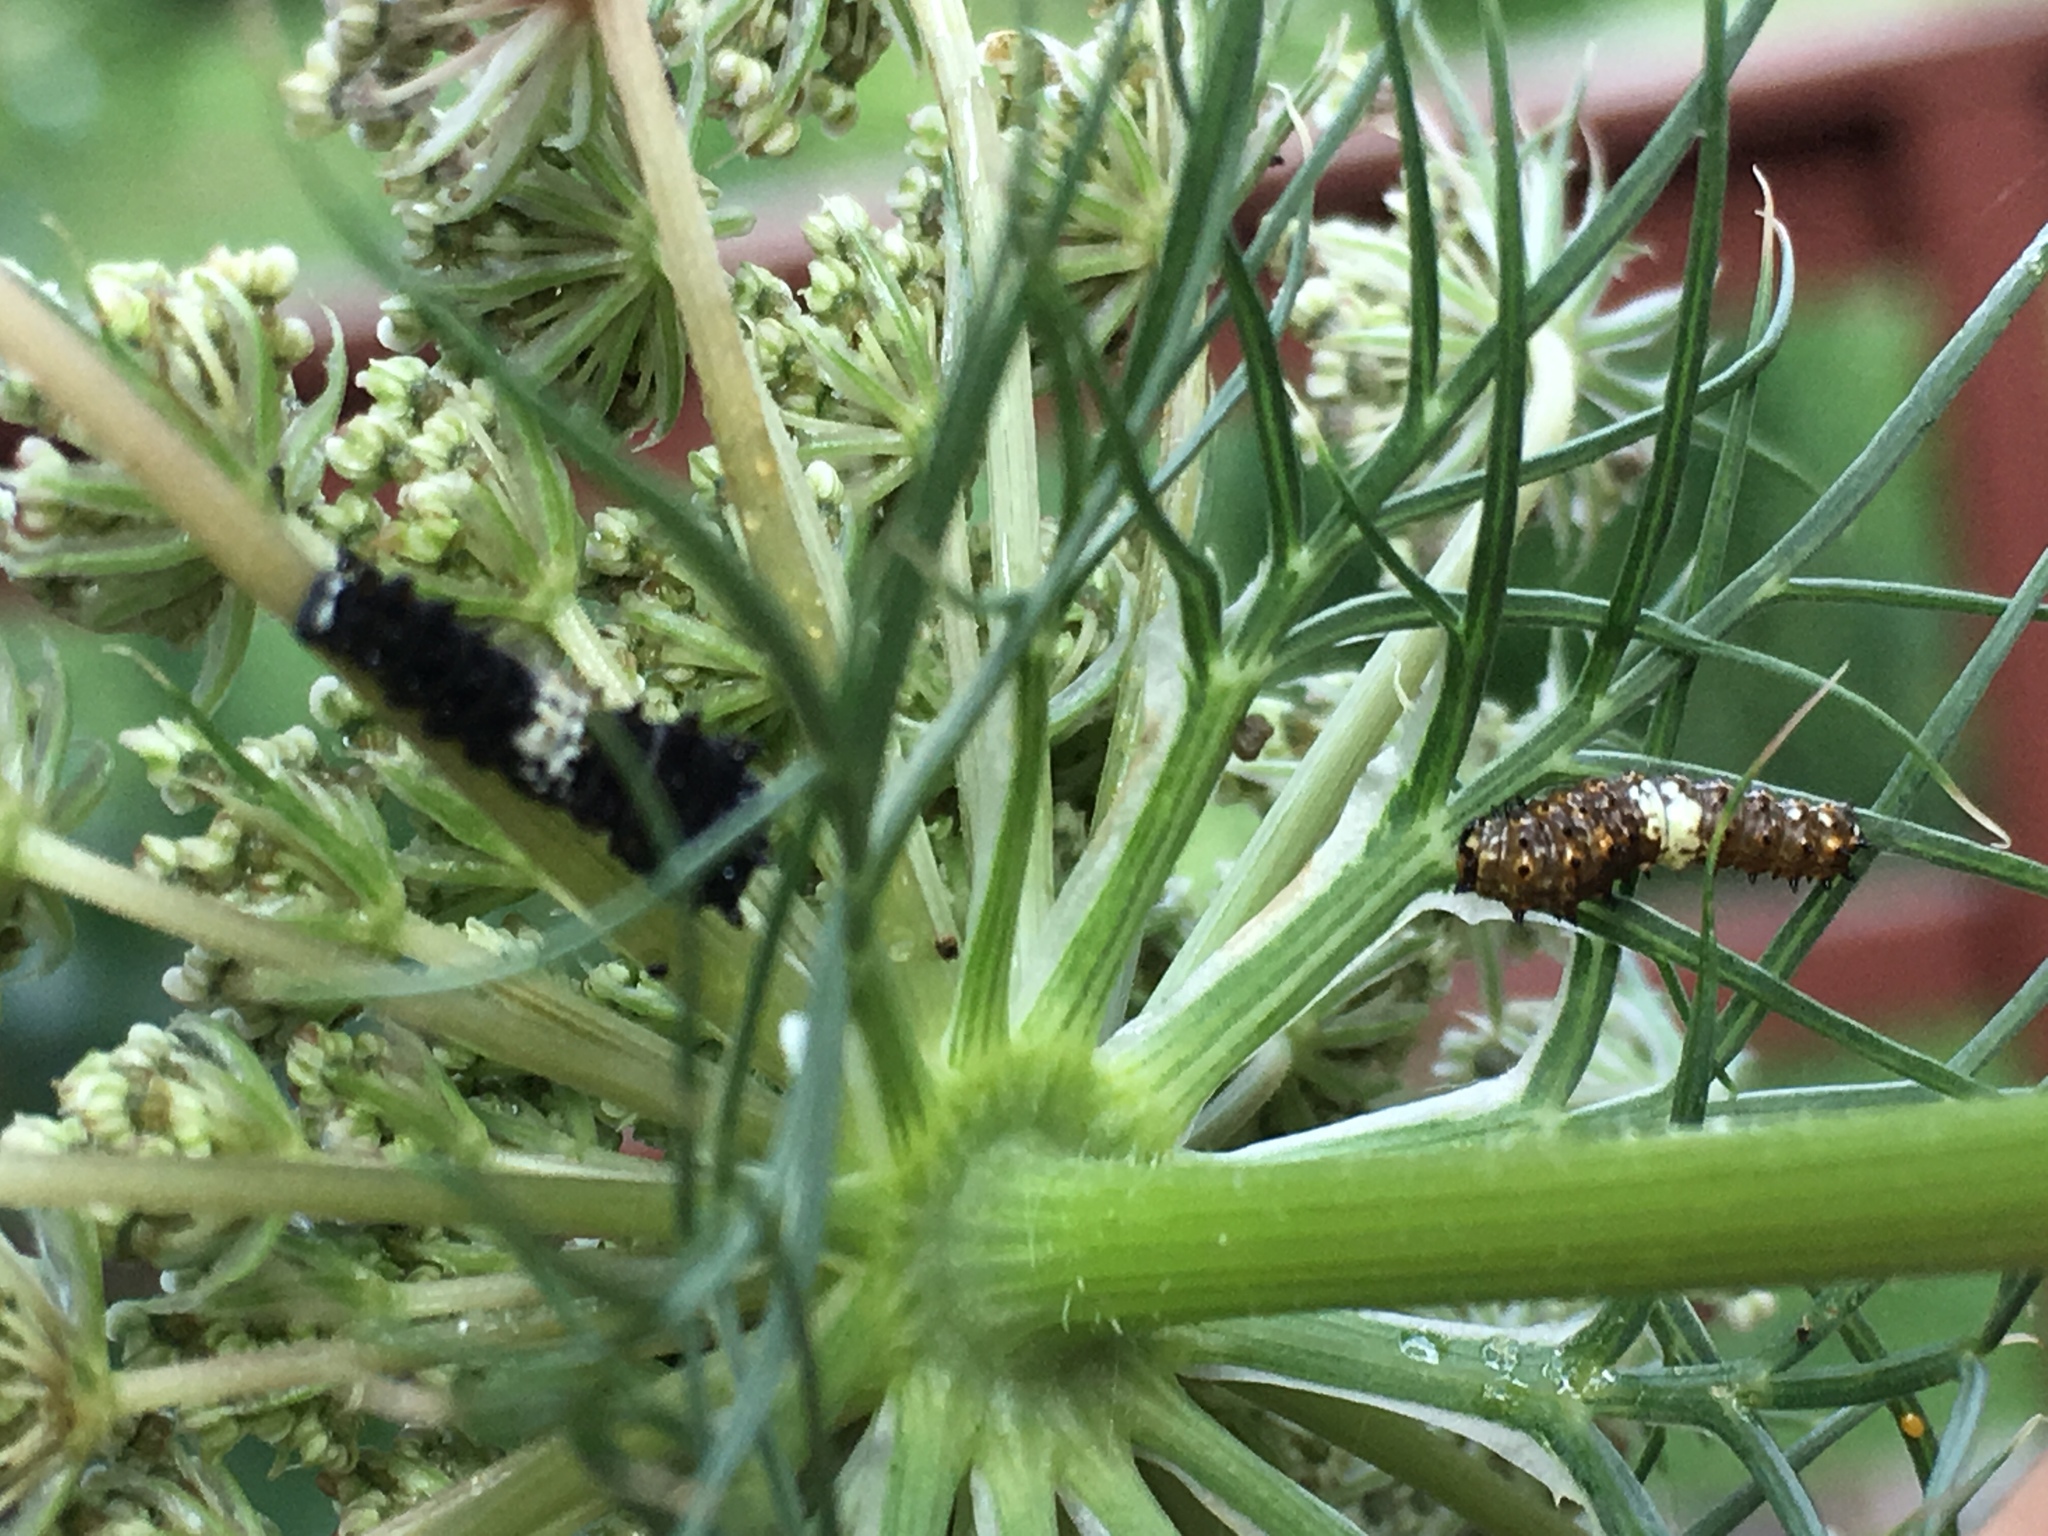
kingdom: Animalia
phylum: Arthropoda
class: Insecta
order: Lepidoptera
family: Papilionidae
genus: Papilio
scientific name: Papilio polyxenes
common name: Black swallowtail
